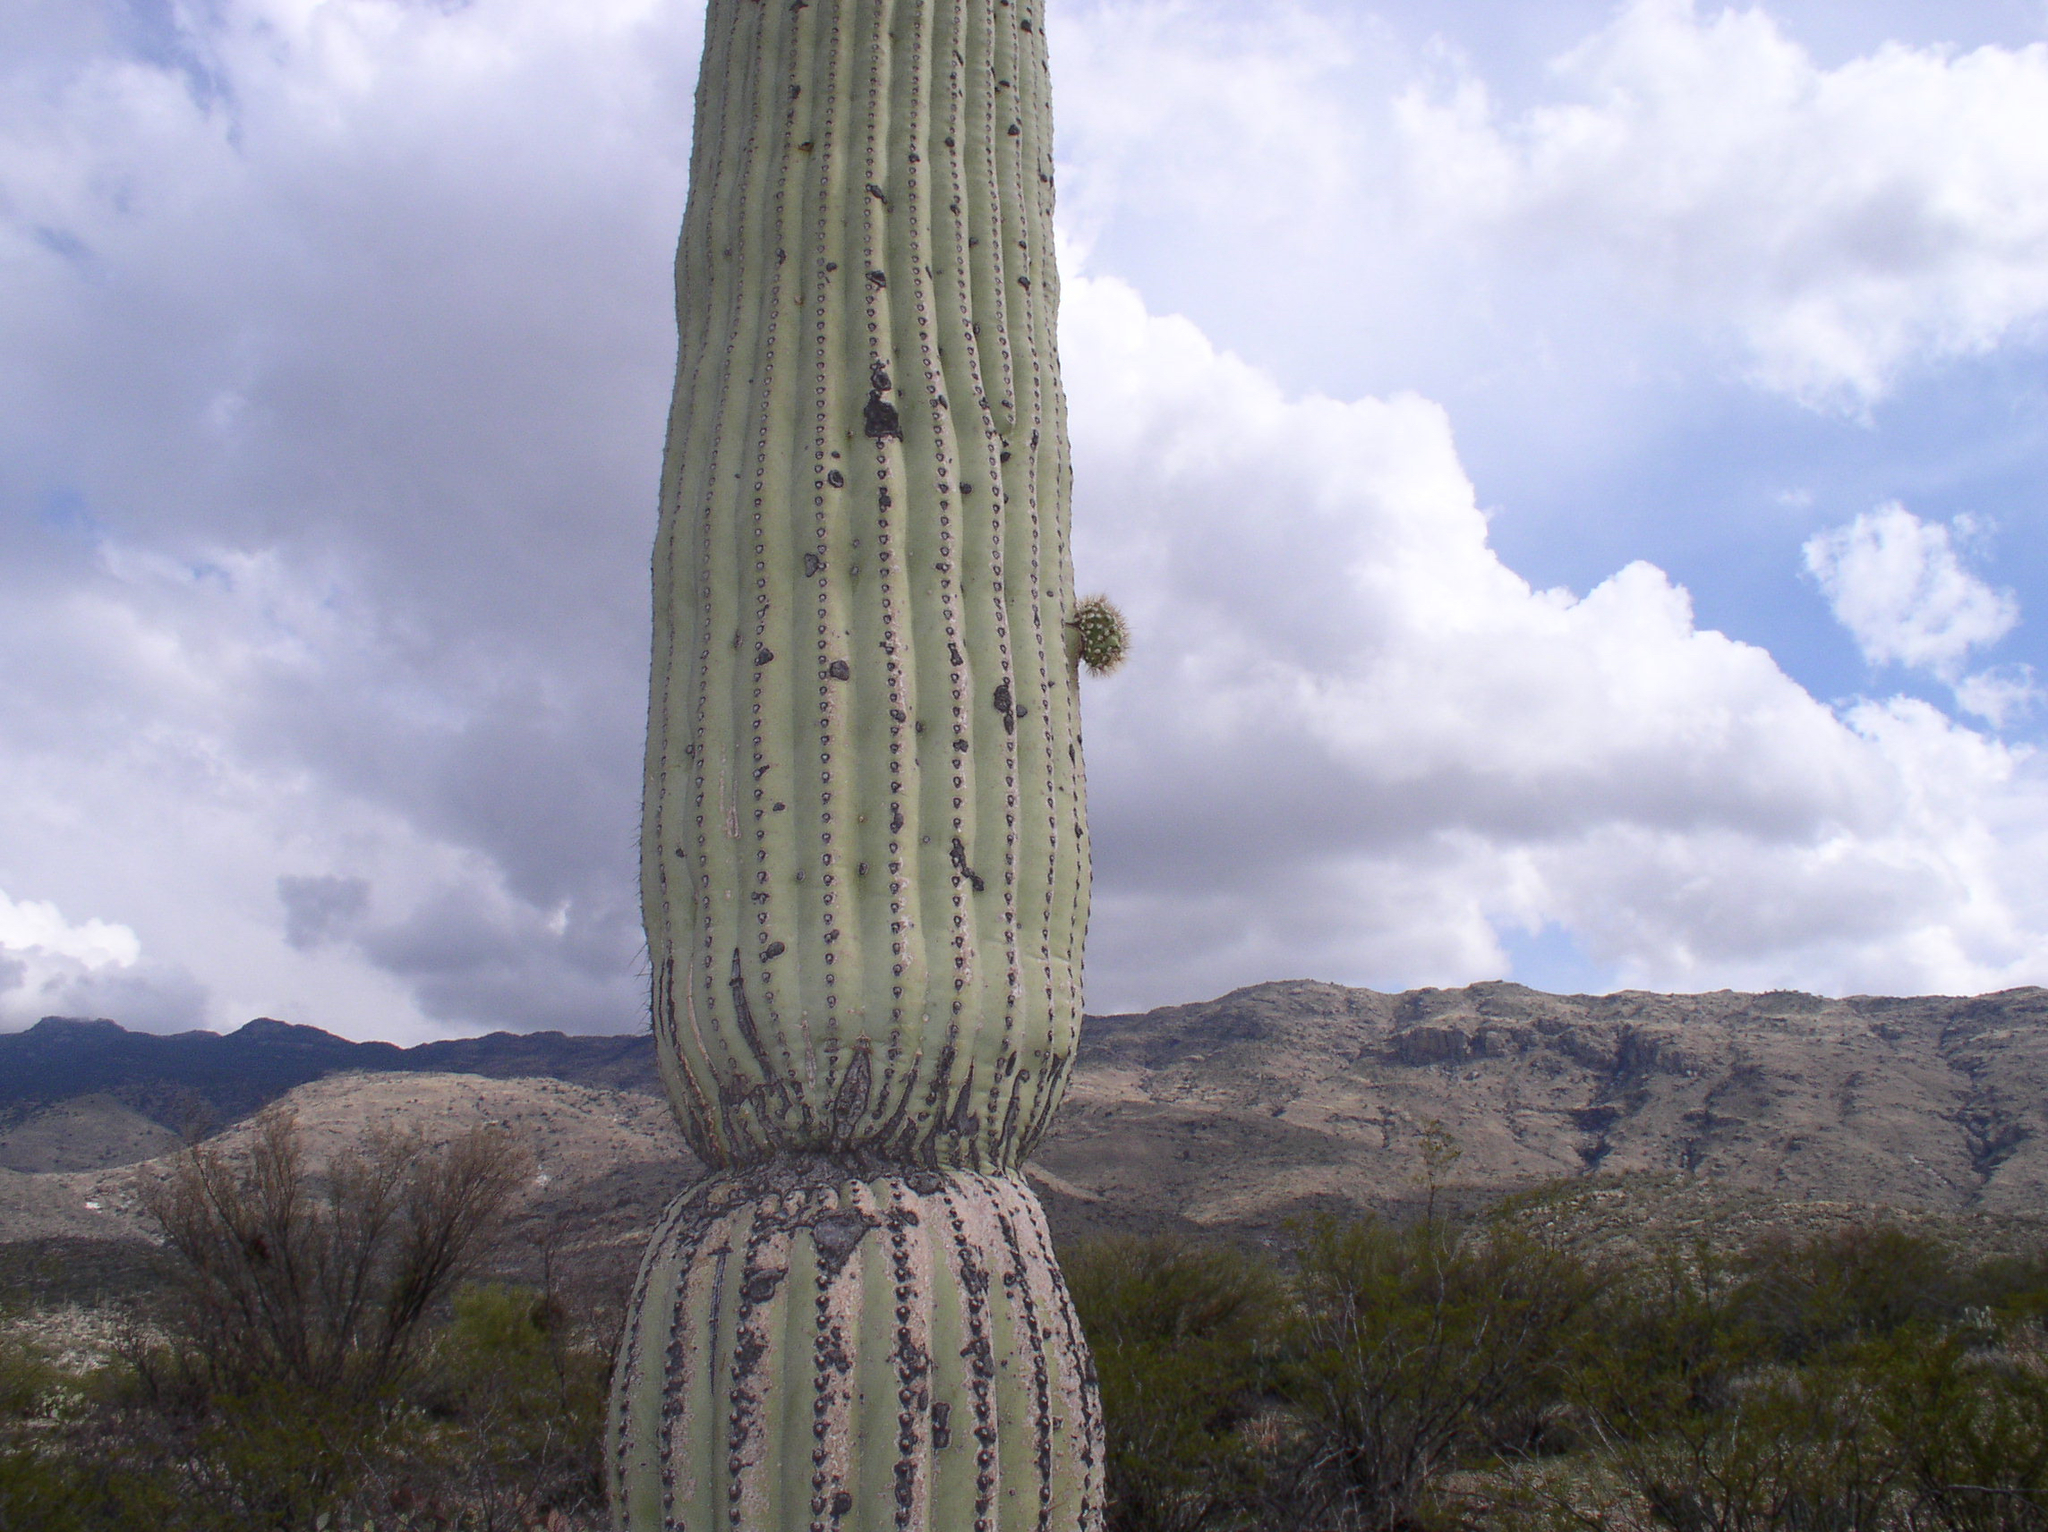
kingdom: Plantae
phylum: Tracheophyta
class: Magnoliopsida
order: Caryophyllales
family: Cactaceae
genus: Carnegiea
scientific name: Carnegiea gigantea
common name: Saguaro
